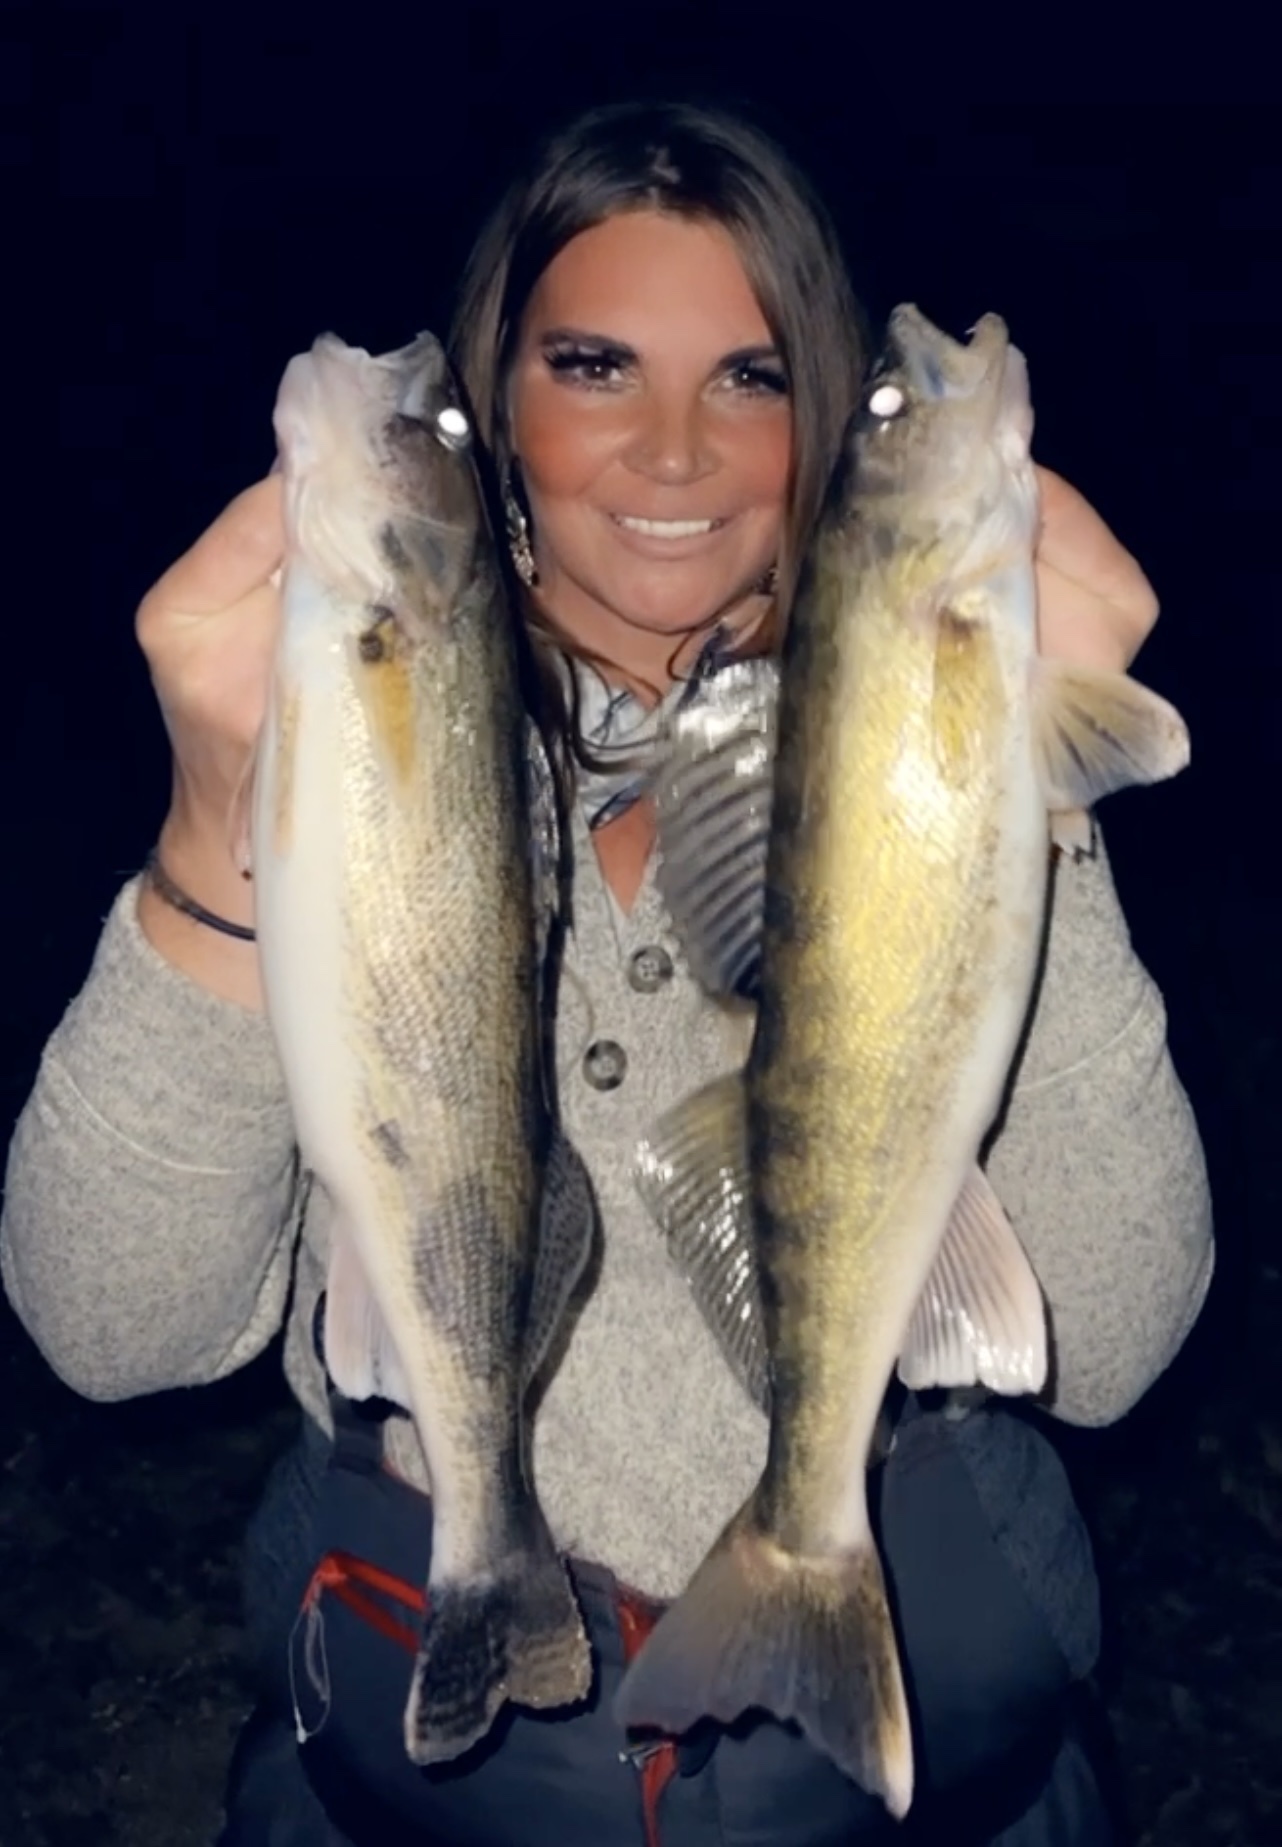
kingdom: Animalia
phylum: Chordata
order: Perciformes
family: Percidae
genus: Sander
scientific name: Sander canadensis
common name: Sauger
